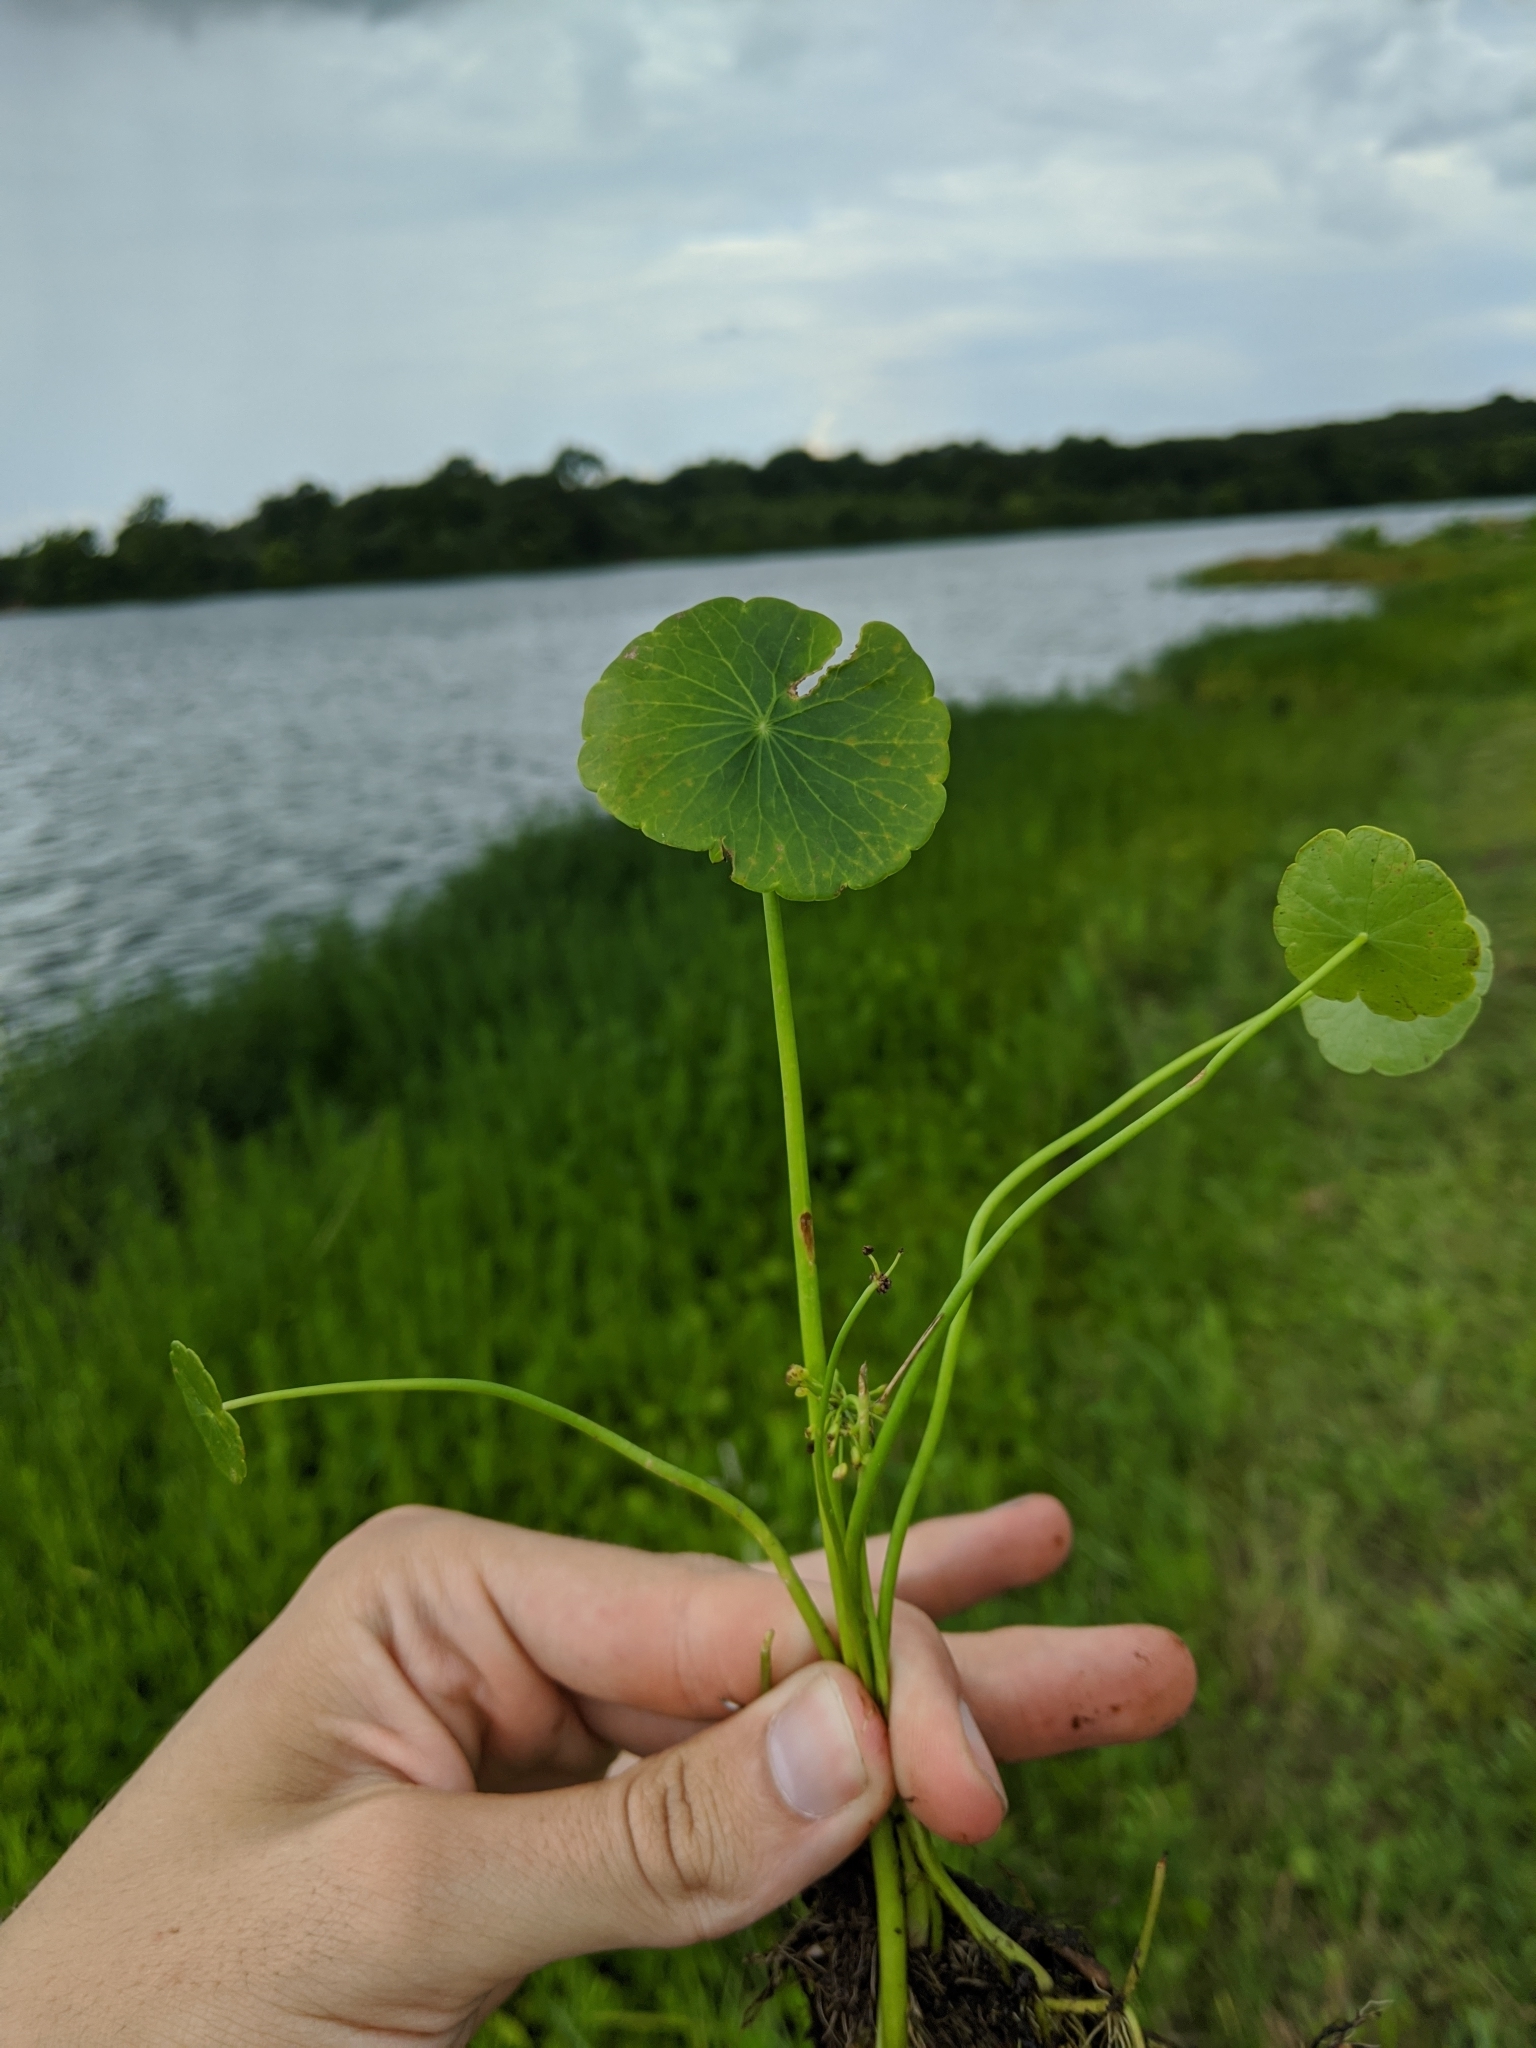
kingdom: Plantae
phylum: Tracheophyta
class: Magnoliopsida
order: Apiales
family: Araliaceae
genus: Hydrocotyle
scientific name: Hydrocotyle umbellata
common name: Water pennywort
